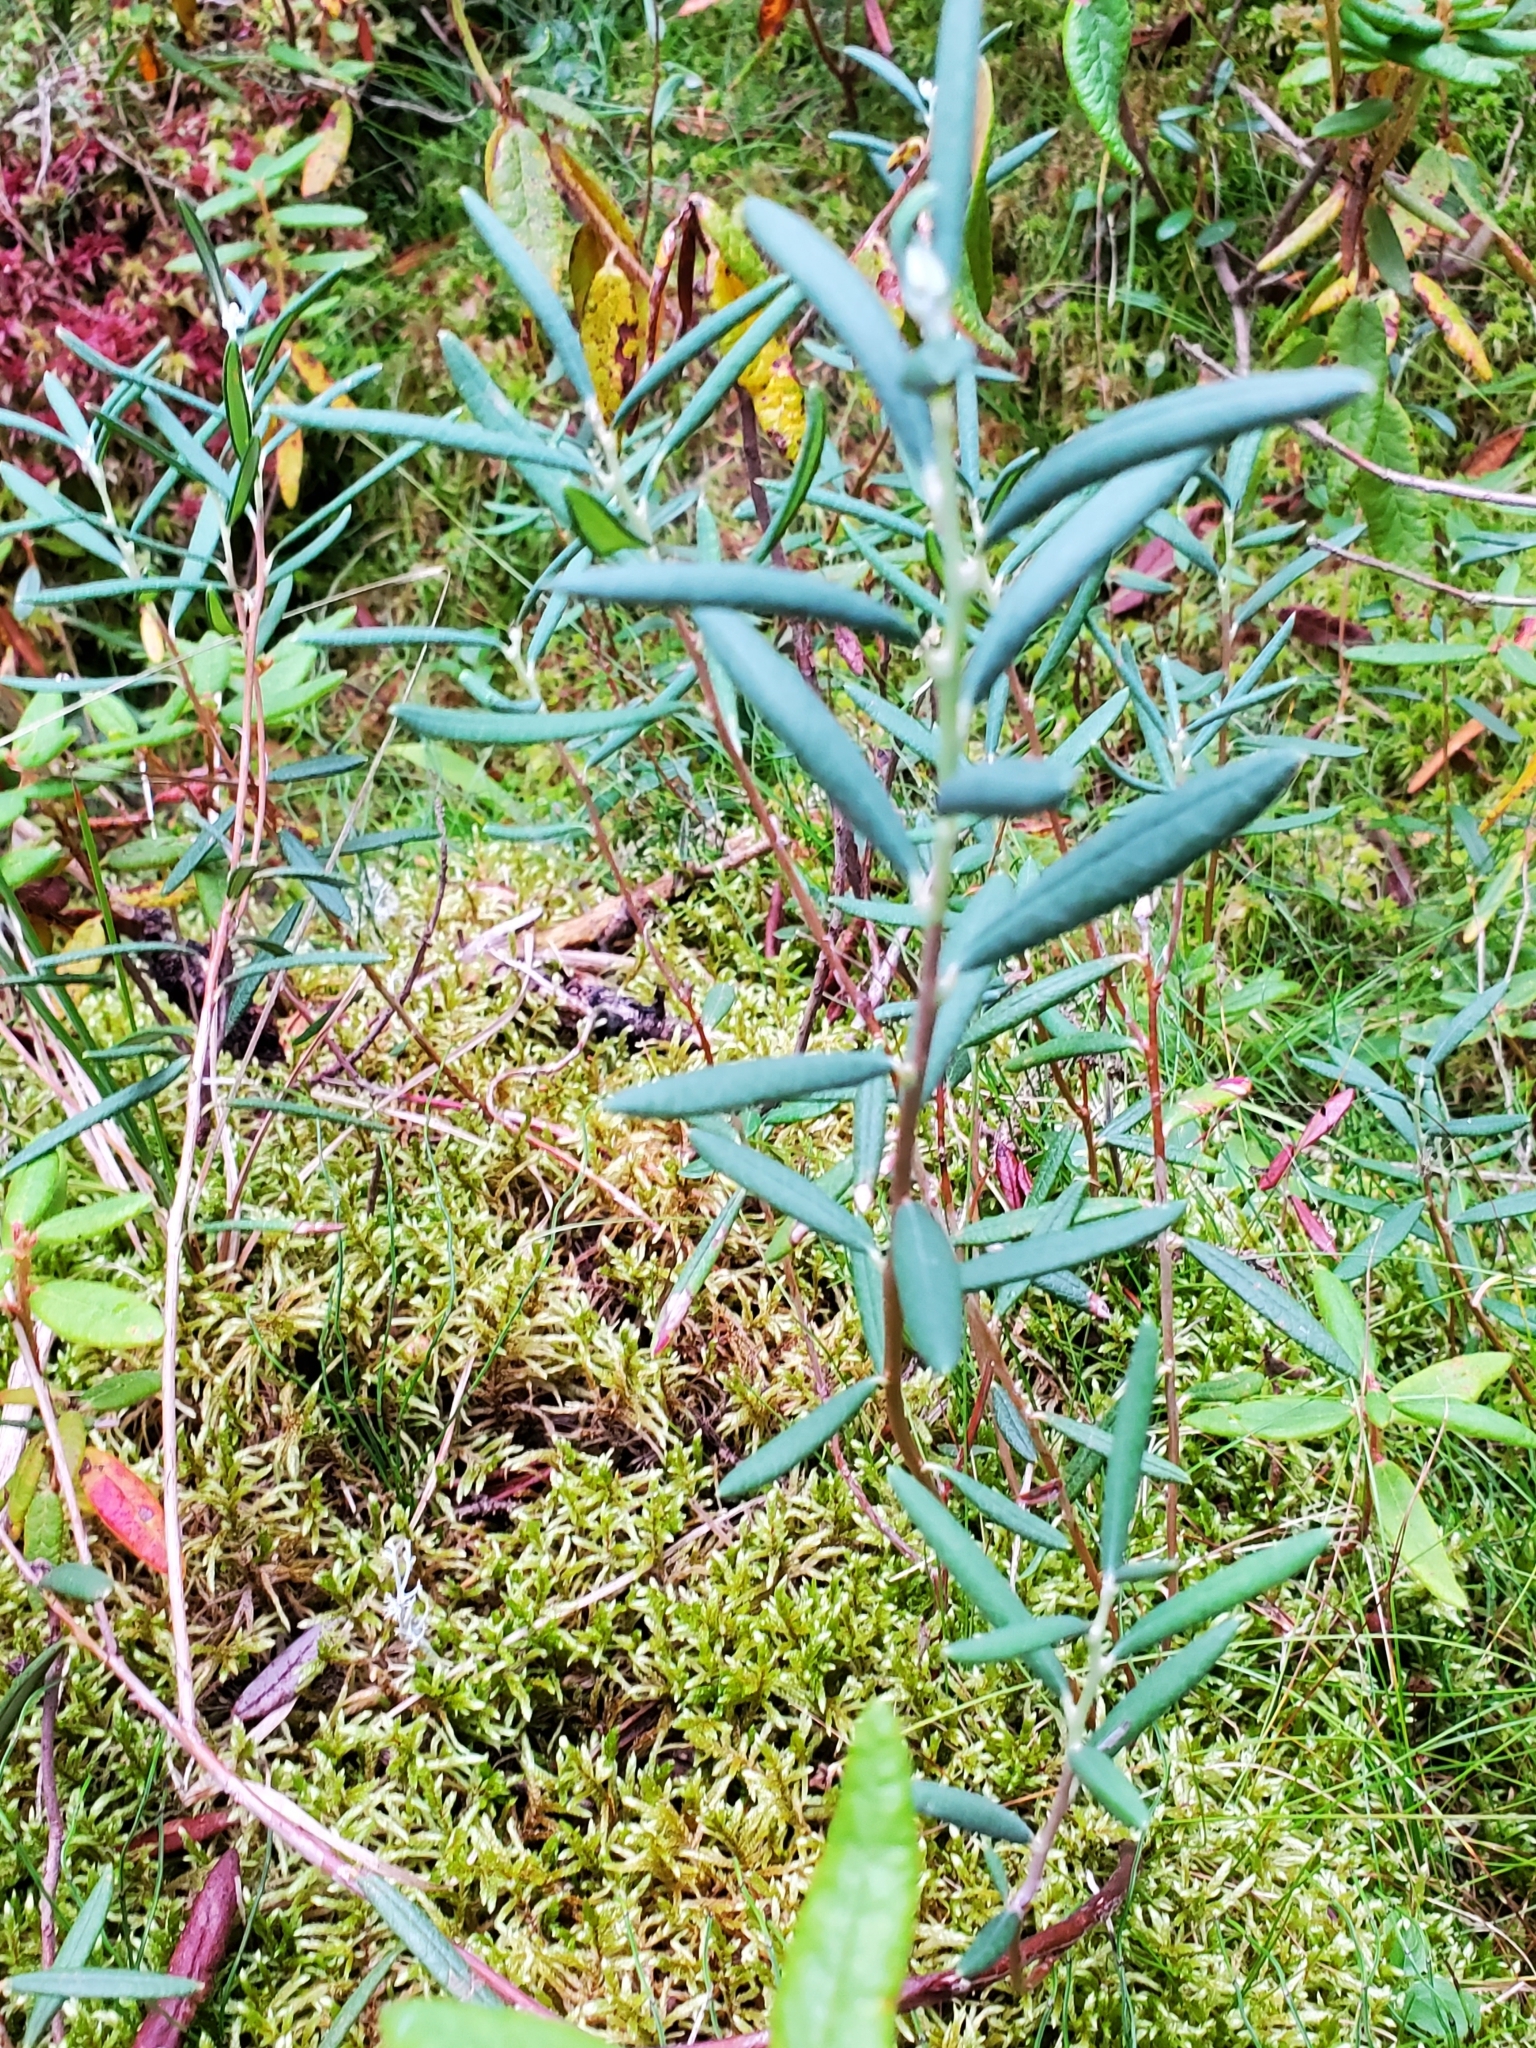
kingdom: Plantae
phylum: Tracheophyta
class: Magnoliopsida
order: Ericales
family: Ericaceae
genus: Andromeda
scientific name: Andromeda polifolia
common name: Bog-rosemary
